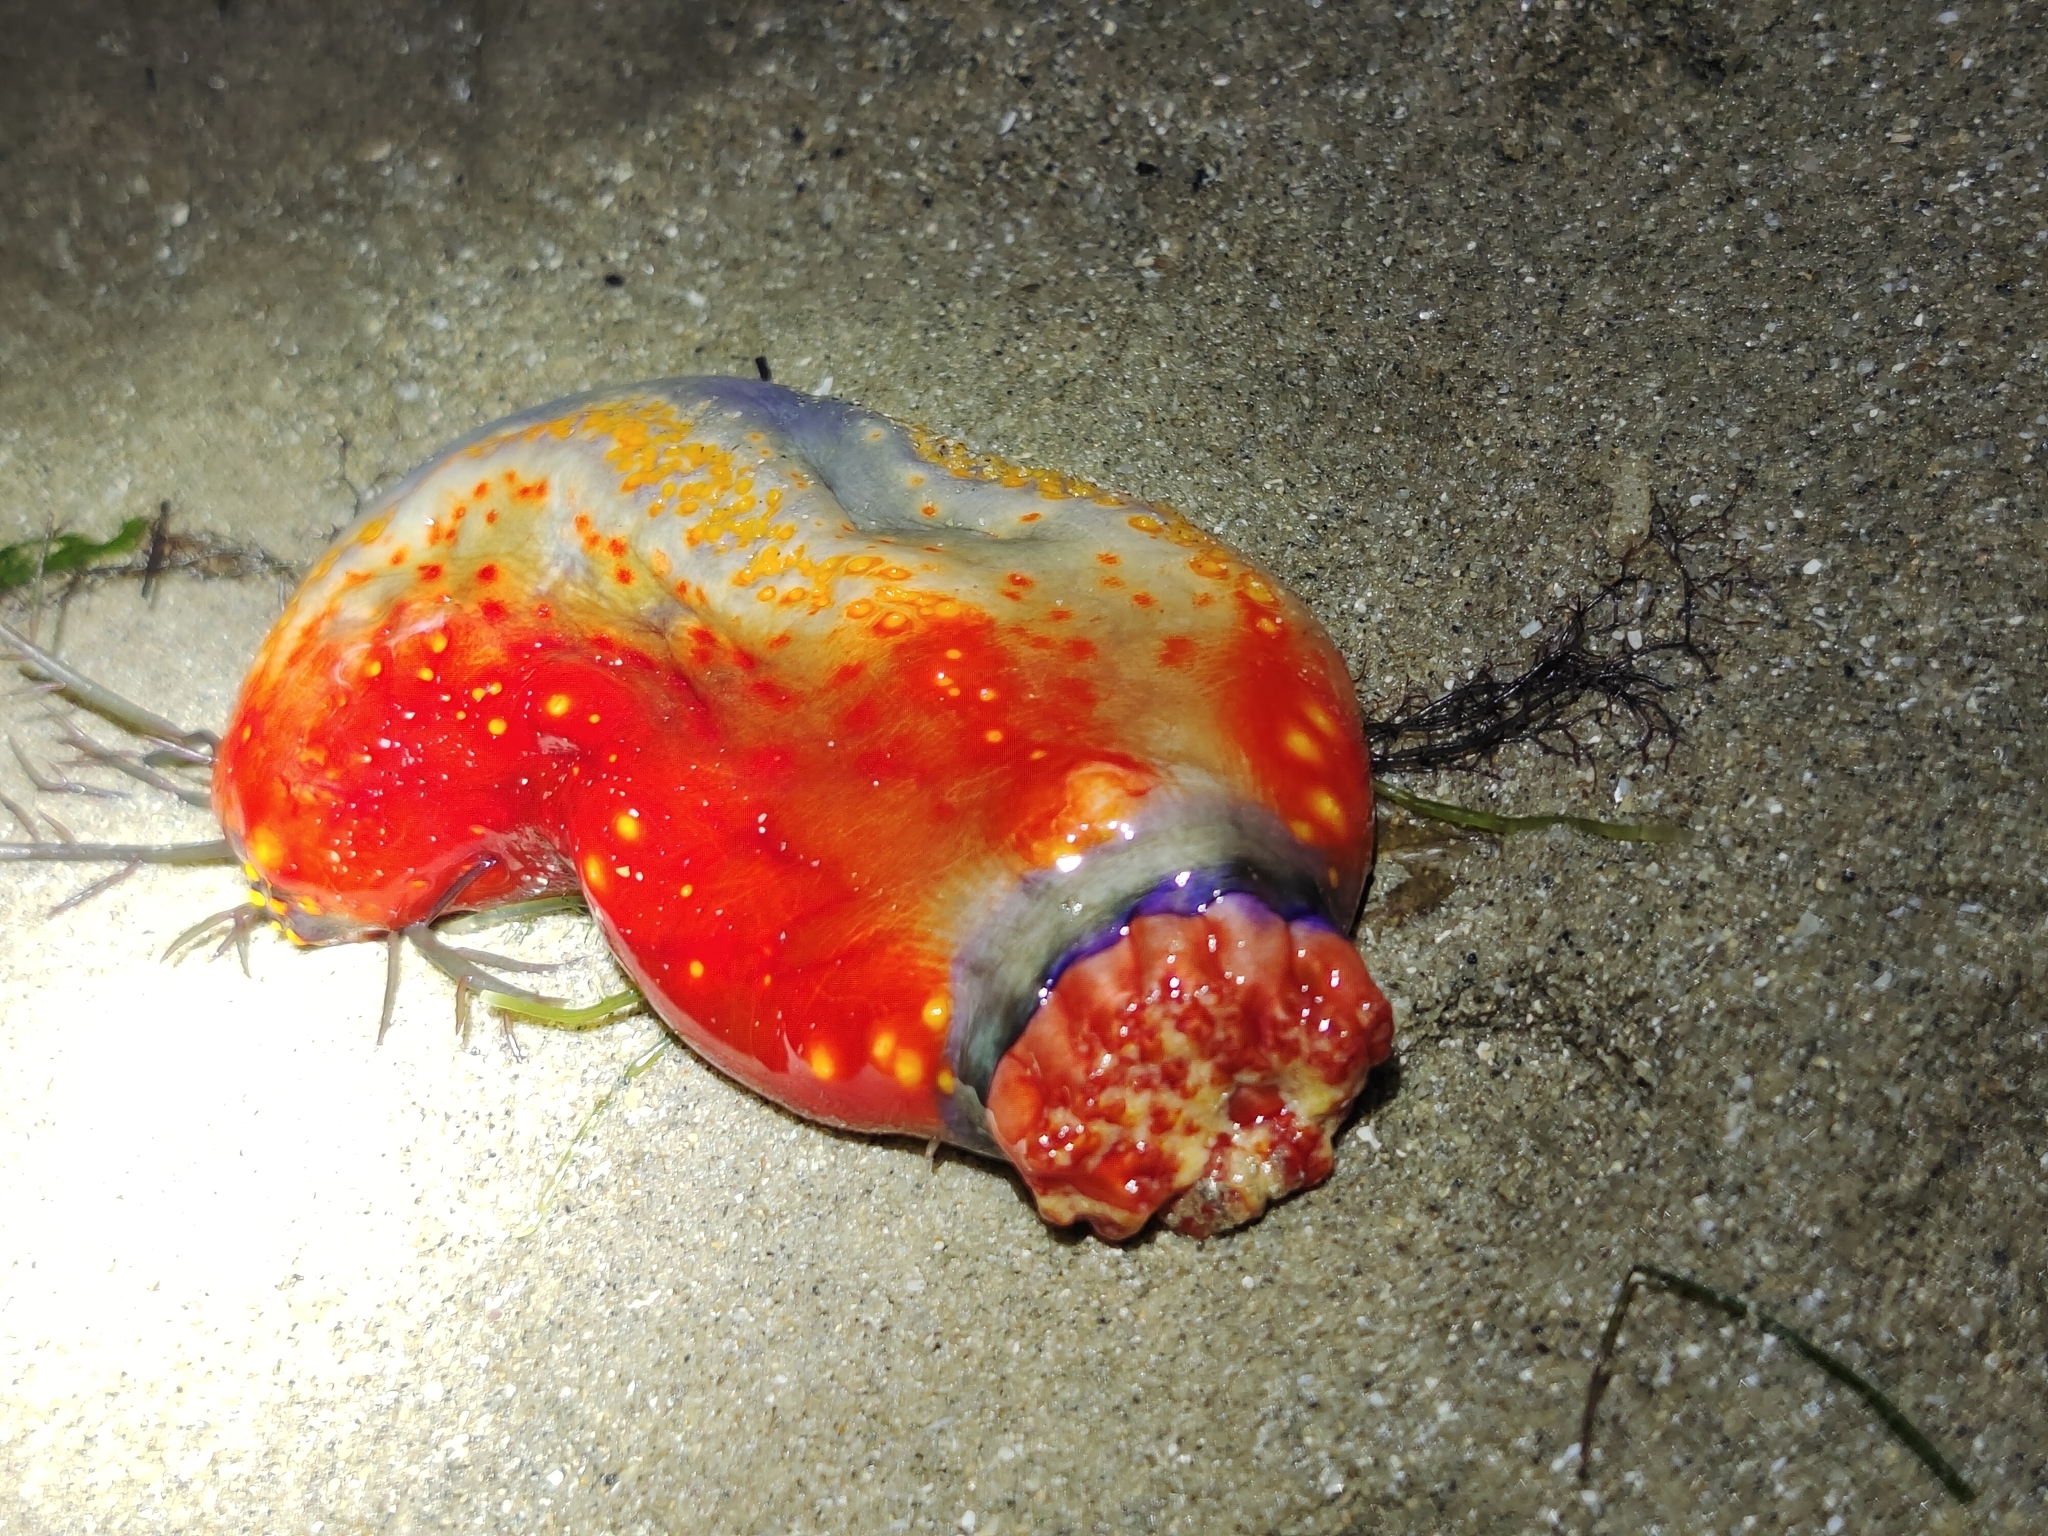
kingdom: Animalia
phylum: Echinodermata
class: Holothuroidea
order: Dendrochirotida
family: Cucumariidae
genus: Pseudocolochirus
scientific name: Pseudocolochirus violaceus
